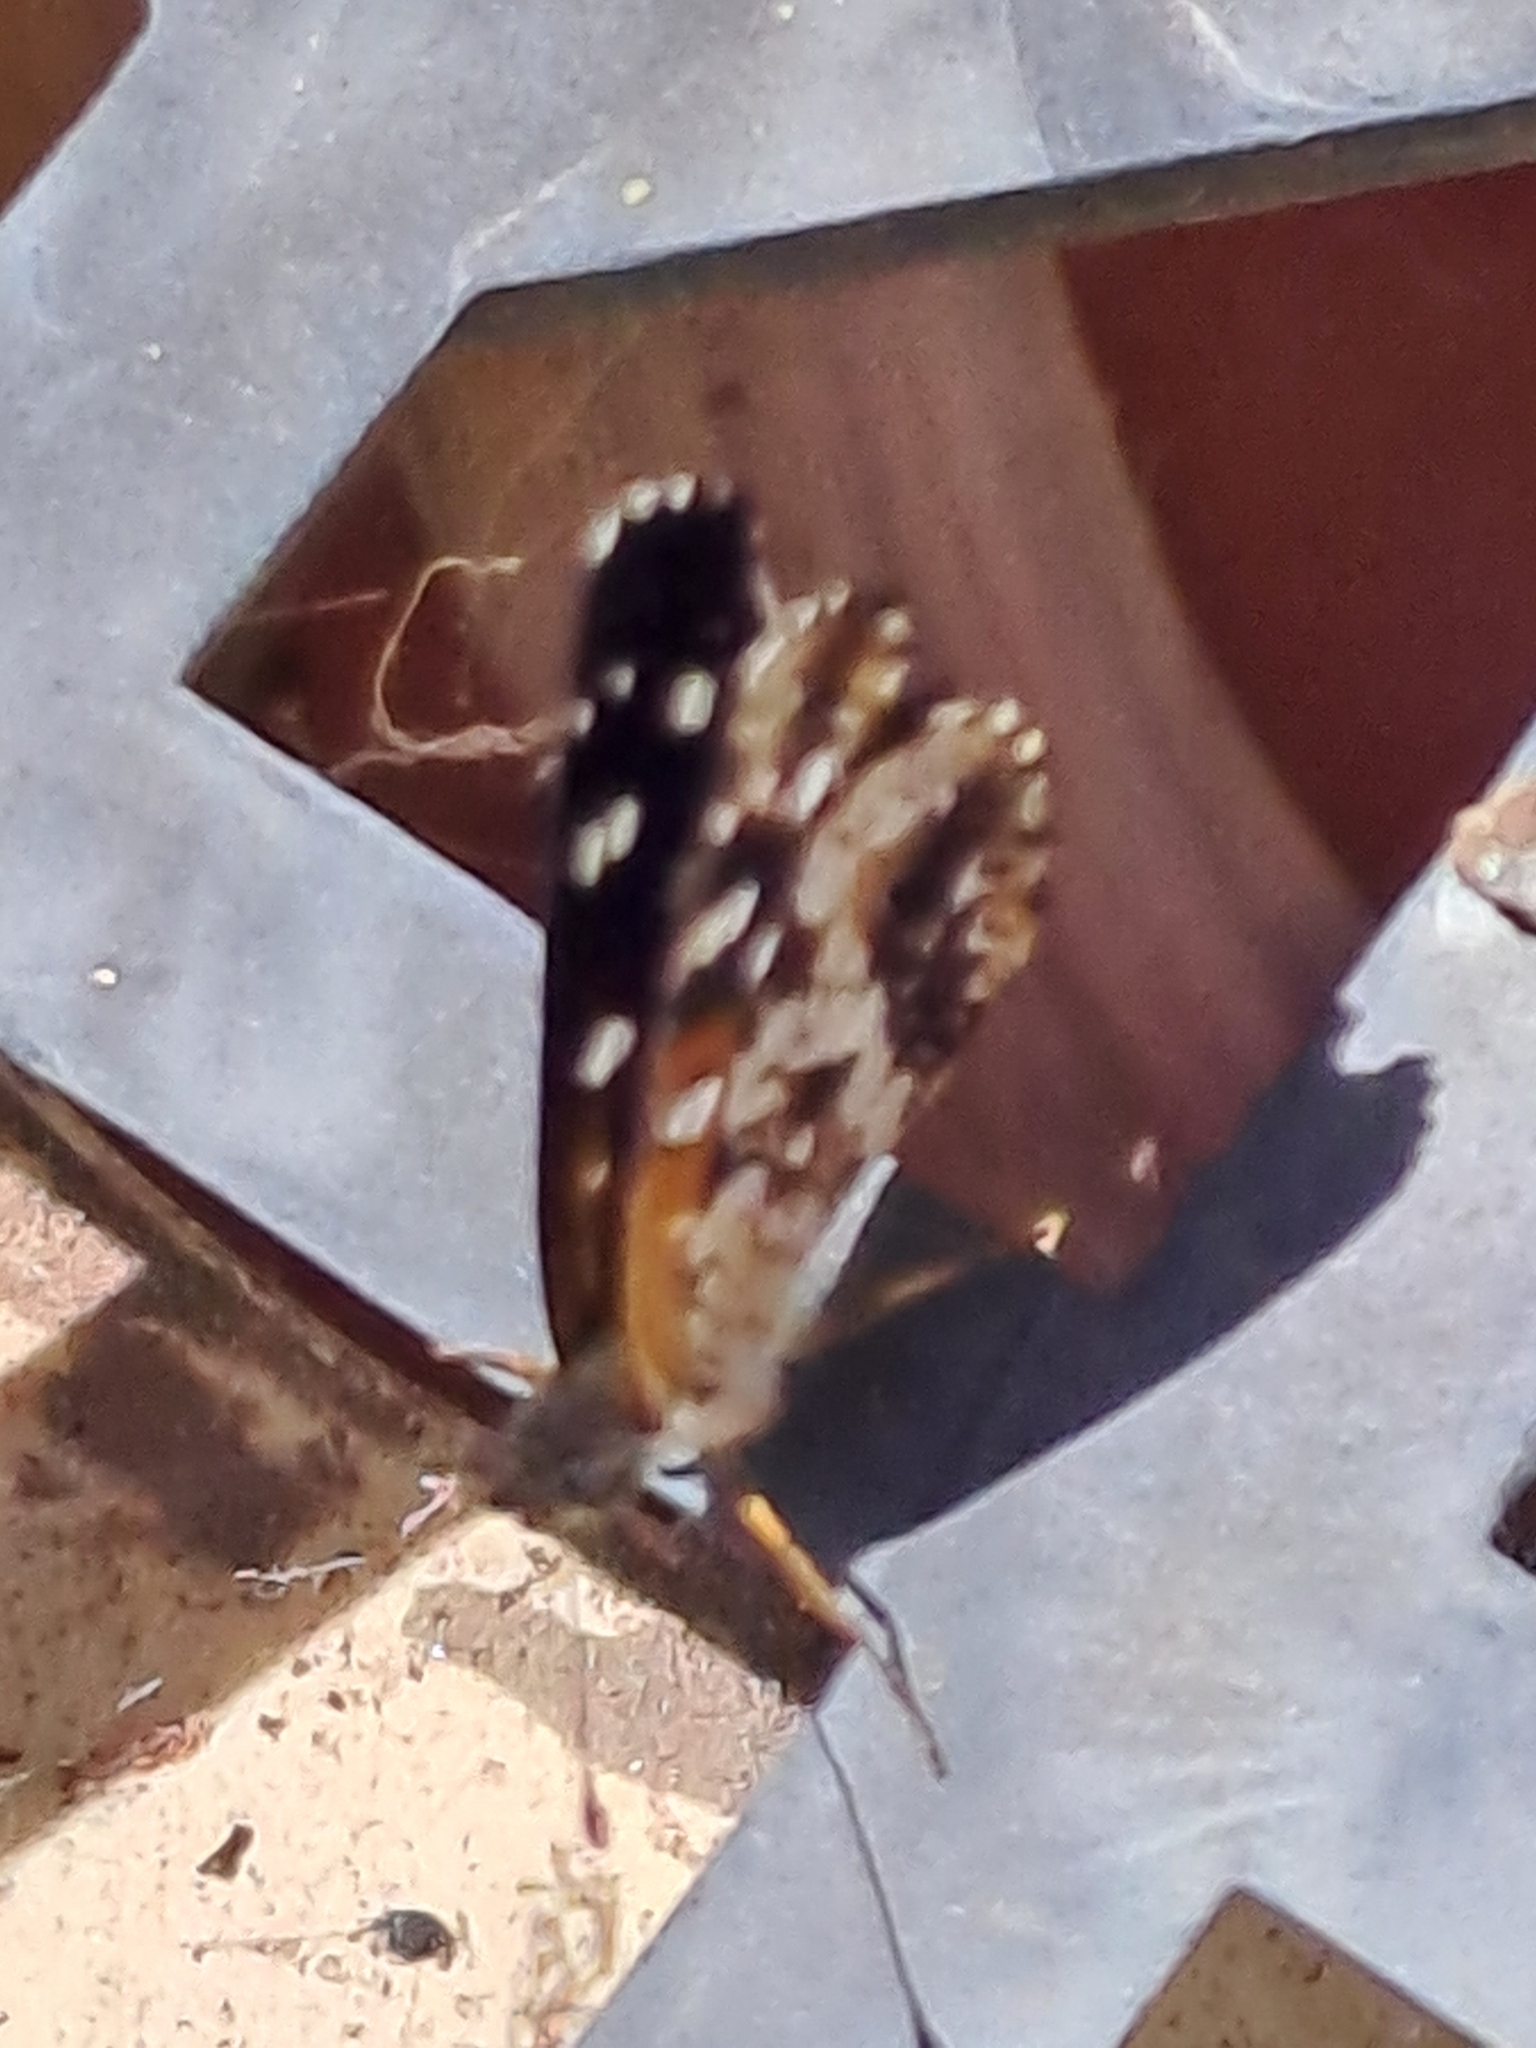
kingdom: Animalia
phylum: Arthropoda
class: Insecta
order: Lepidoptera
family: Nymphalidae
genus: Ortilia
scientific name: Ortilia ithra
